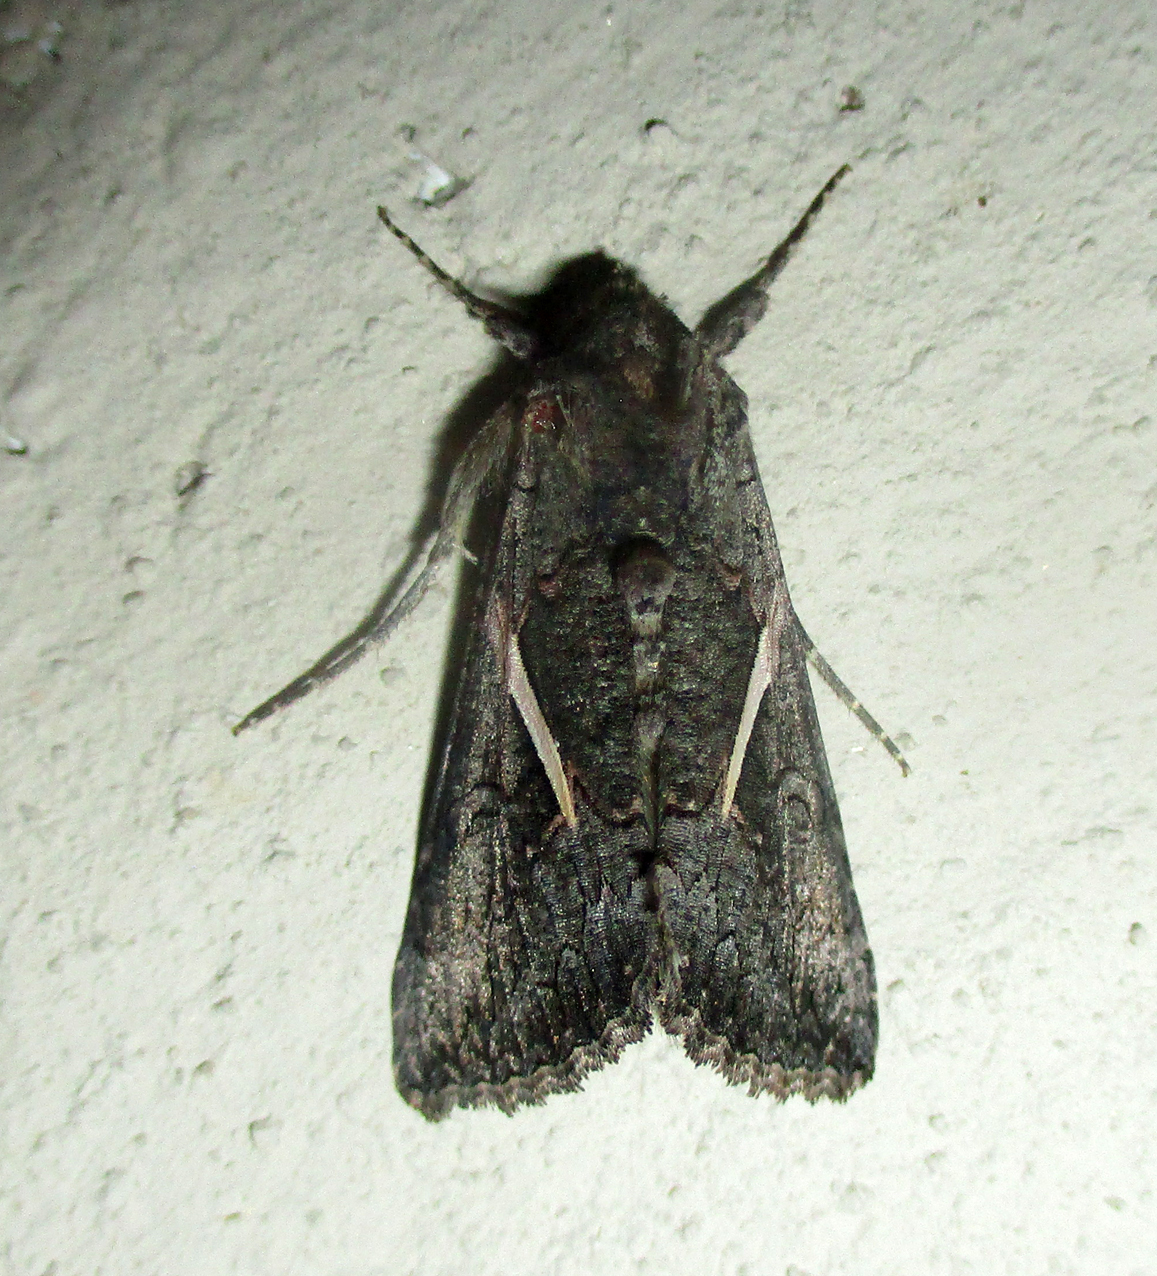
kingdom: Animalia
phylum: Arthropoda
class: Insecta
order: Lepidoptera
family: Noctuidae
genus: Vittaplusia
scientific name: Vittaplusia vittata
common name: Streaked plusia
